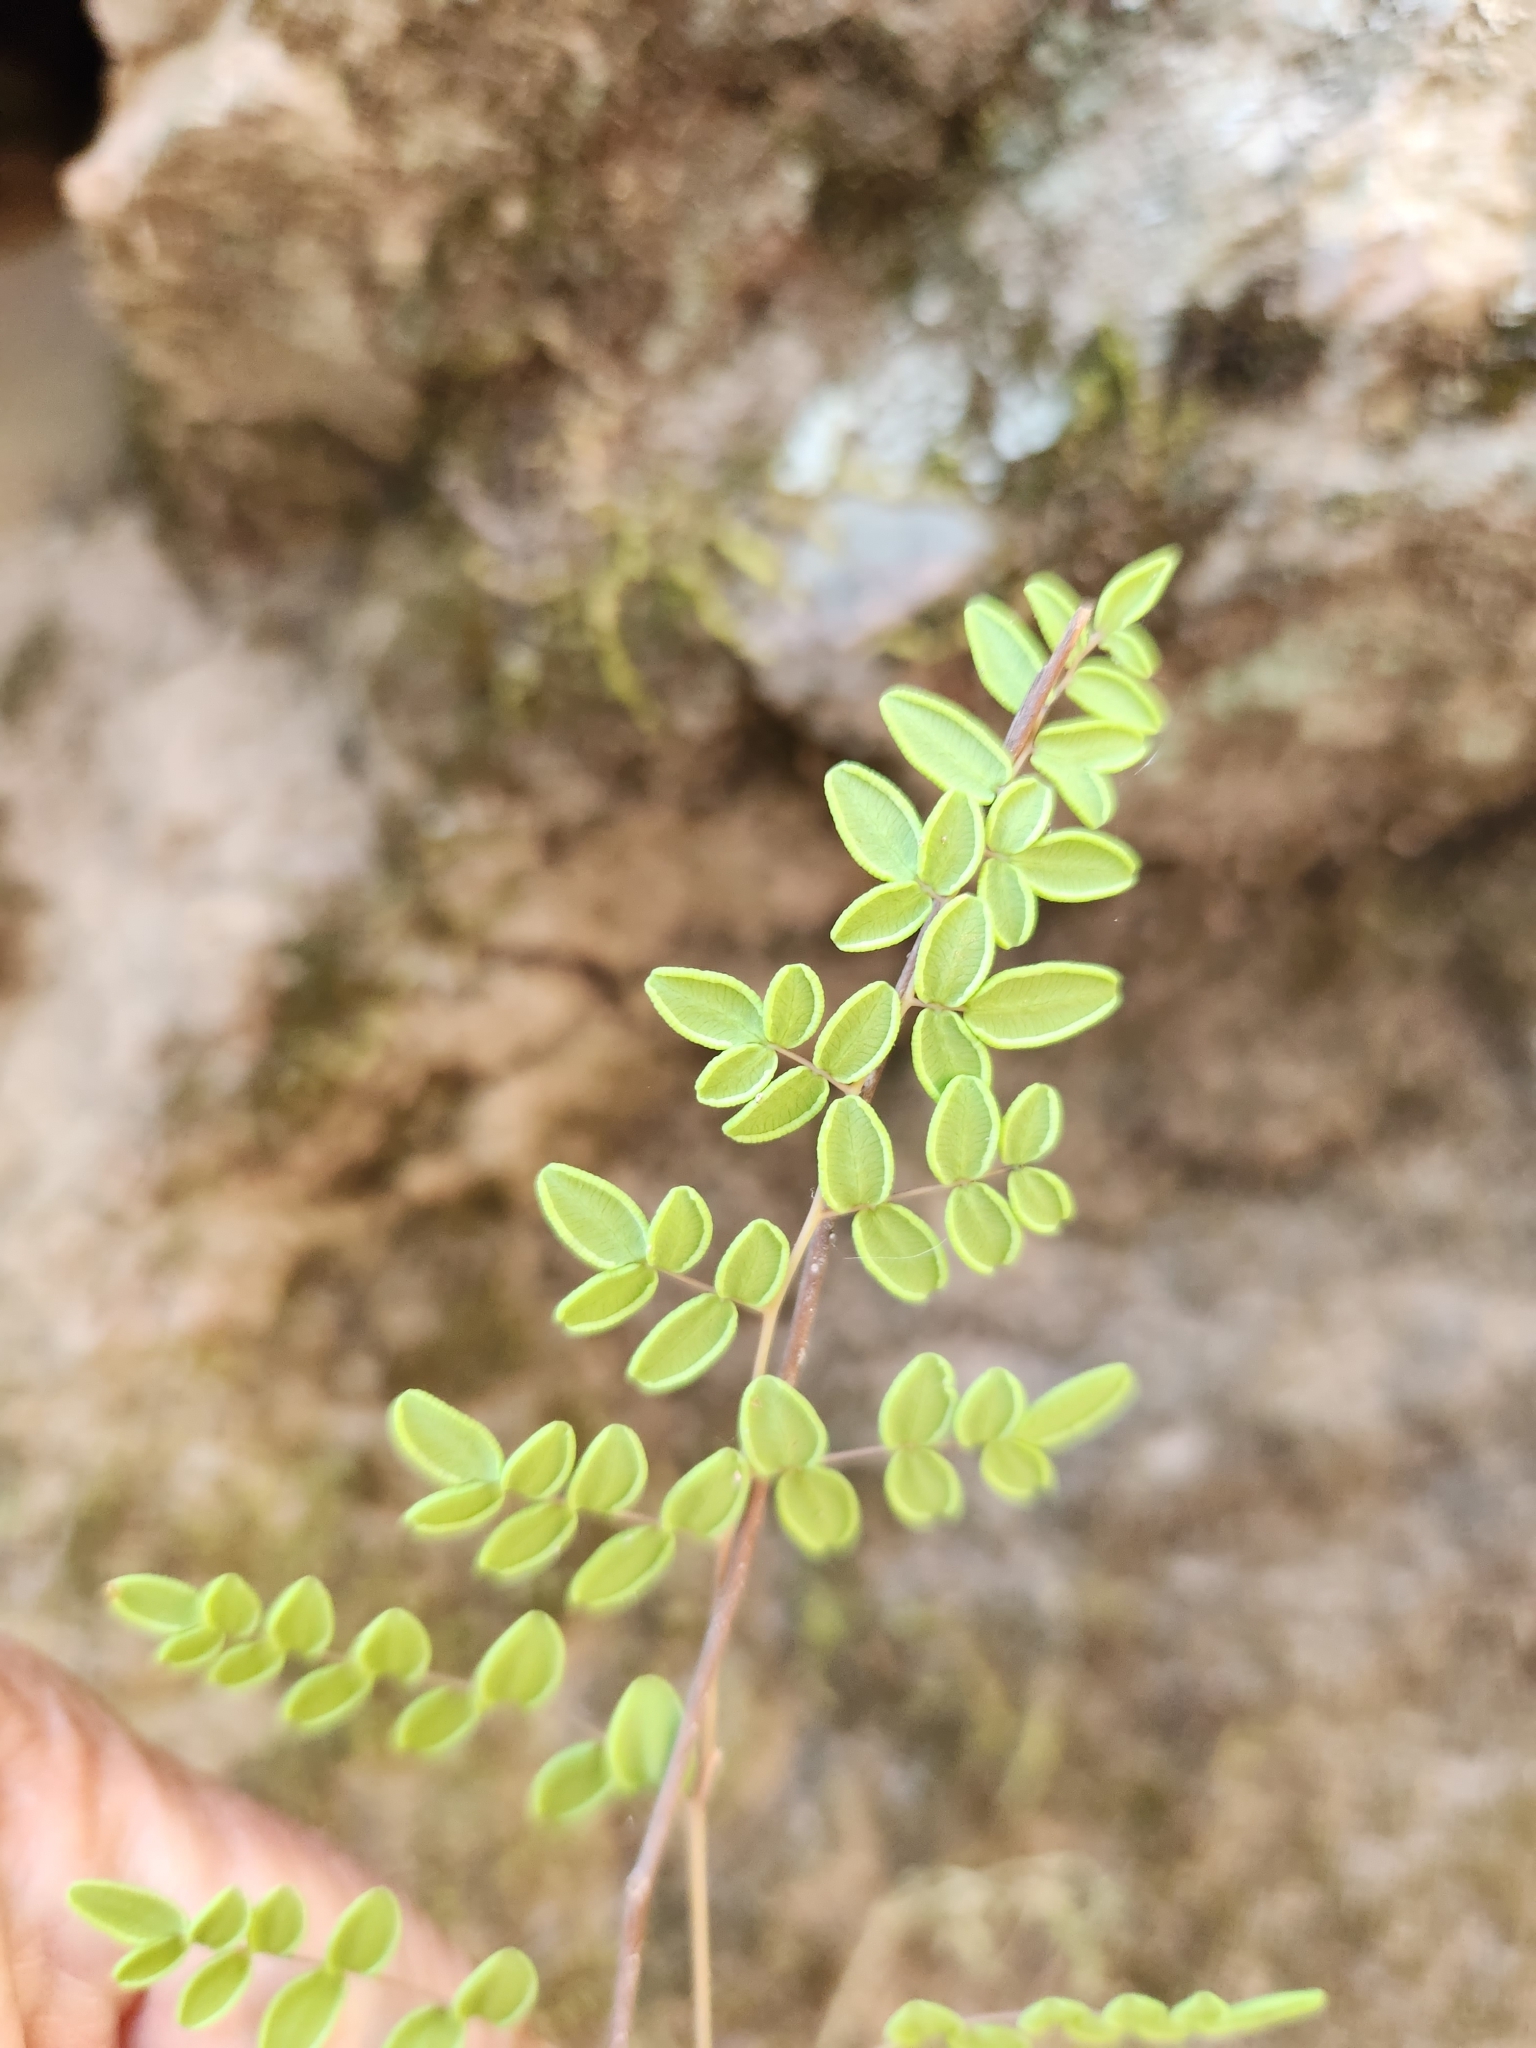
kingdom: Plantae
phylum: Tracheophyta
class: Polypodiopsida
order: Polypodiales
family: Pteridaceae
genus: Pellaea
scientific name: Pellaea andromedifolia
